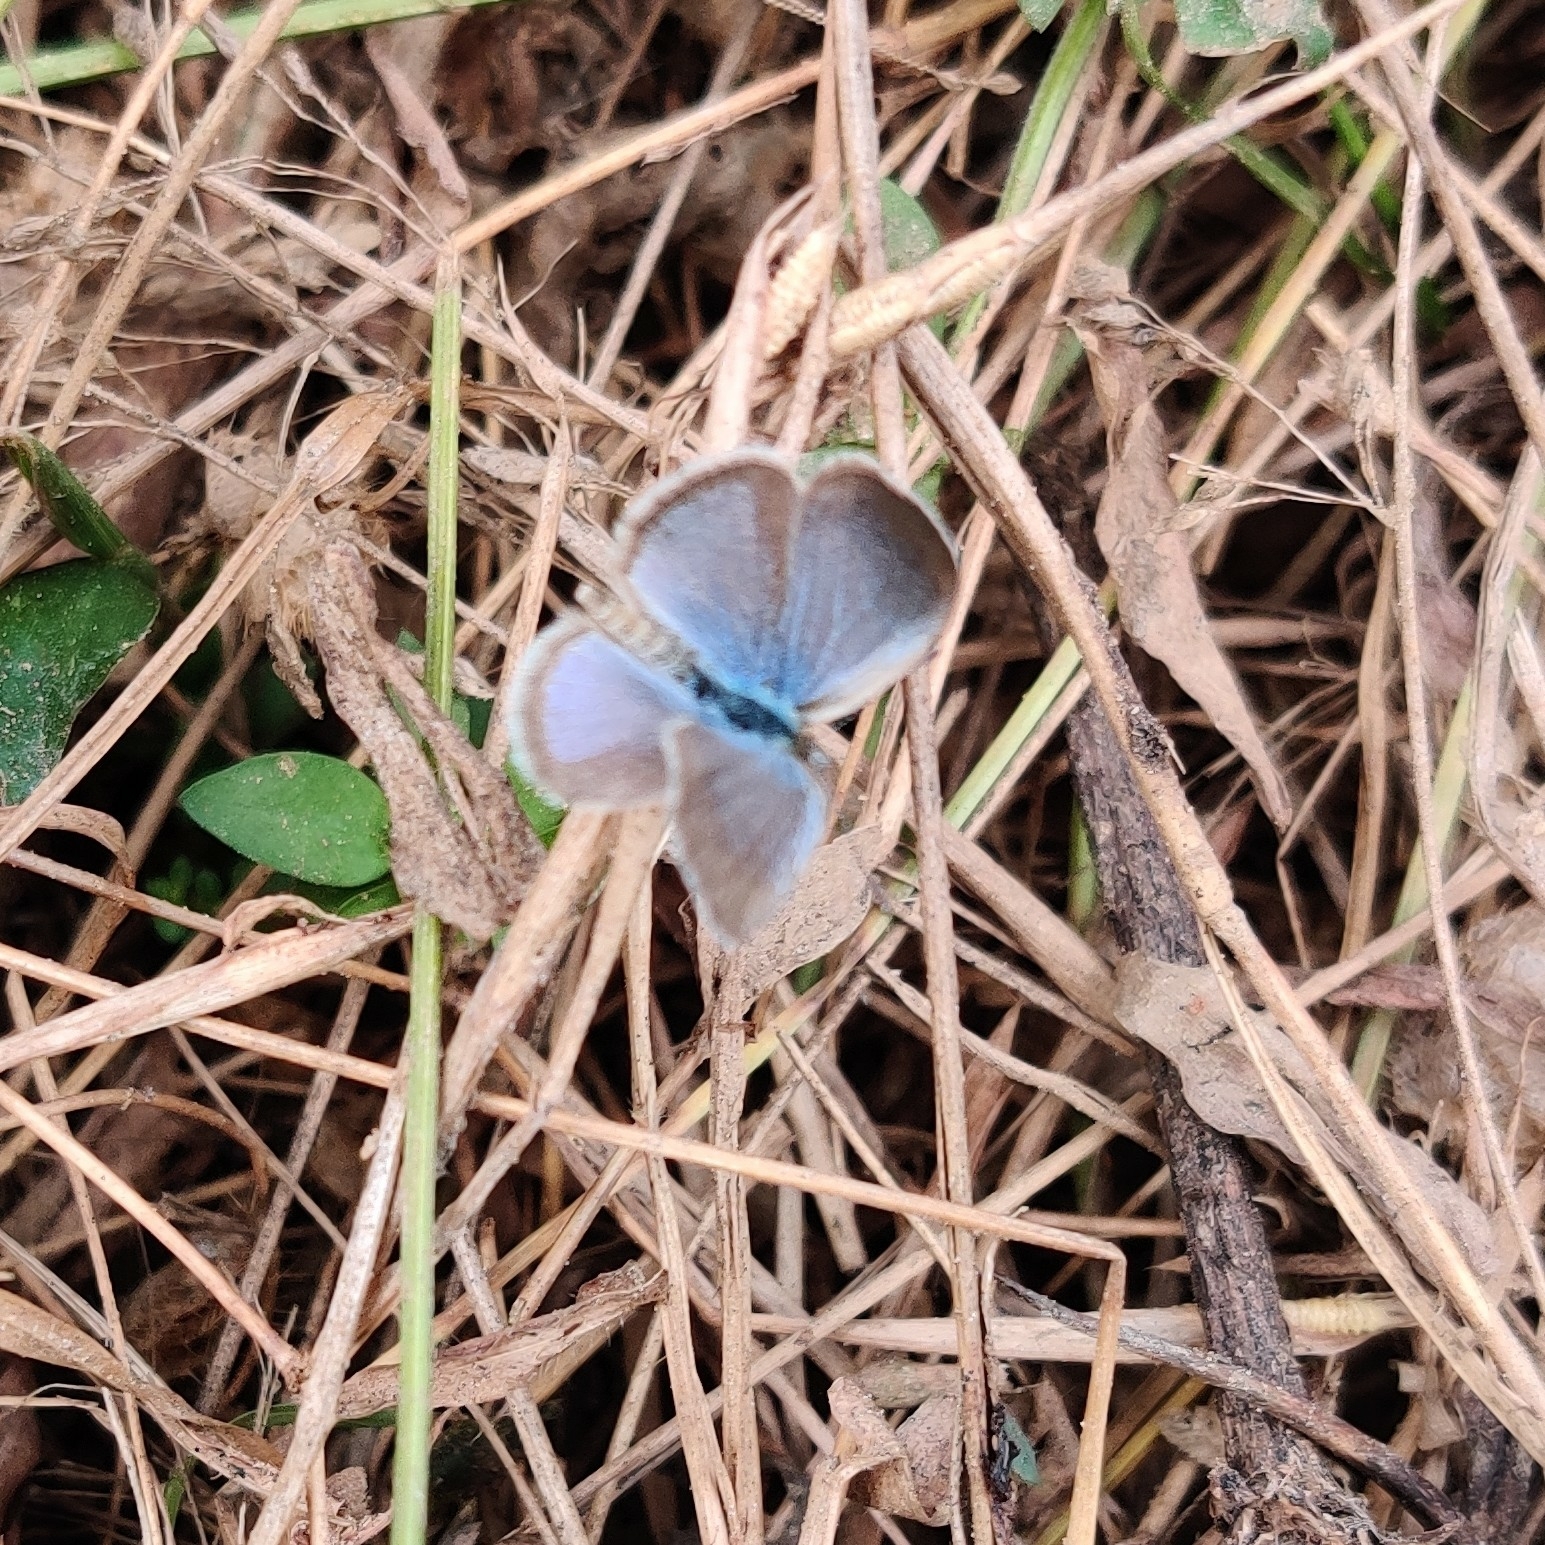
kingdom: Animalia
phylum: Arthropoda
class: Insecta
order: Lepidoptera
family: Lycaenidae
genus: Zizula
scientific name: Zizula hylax
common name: Gaika blue
